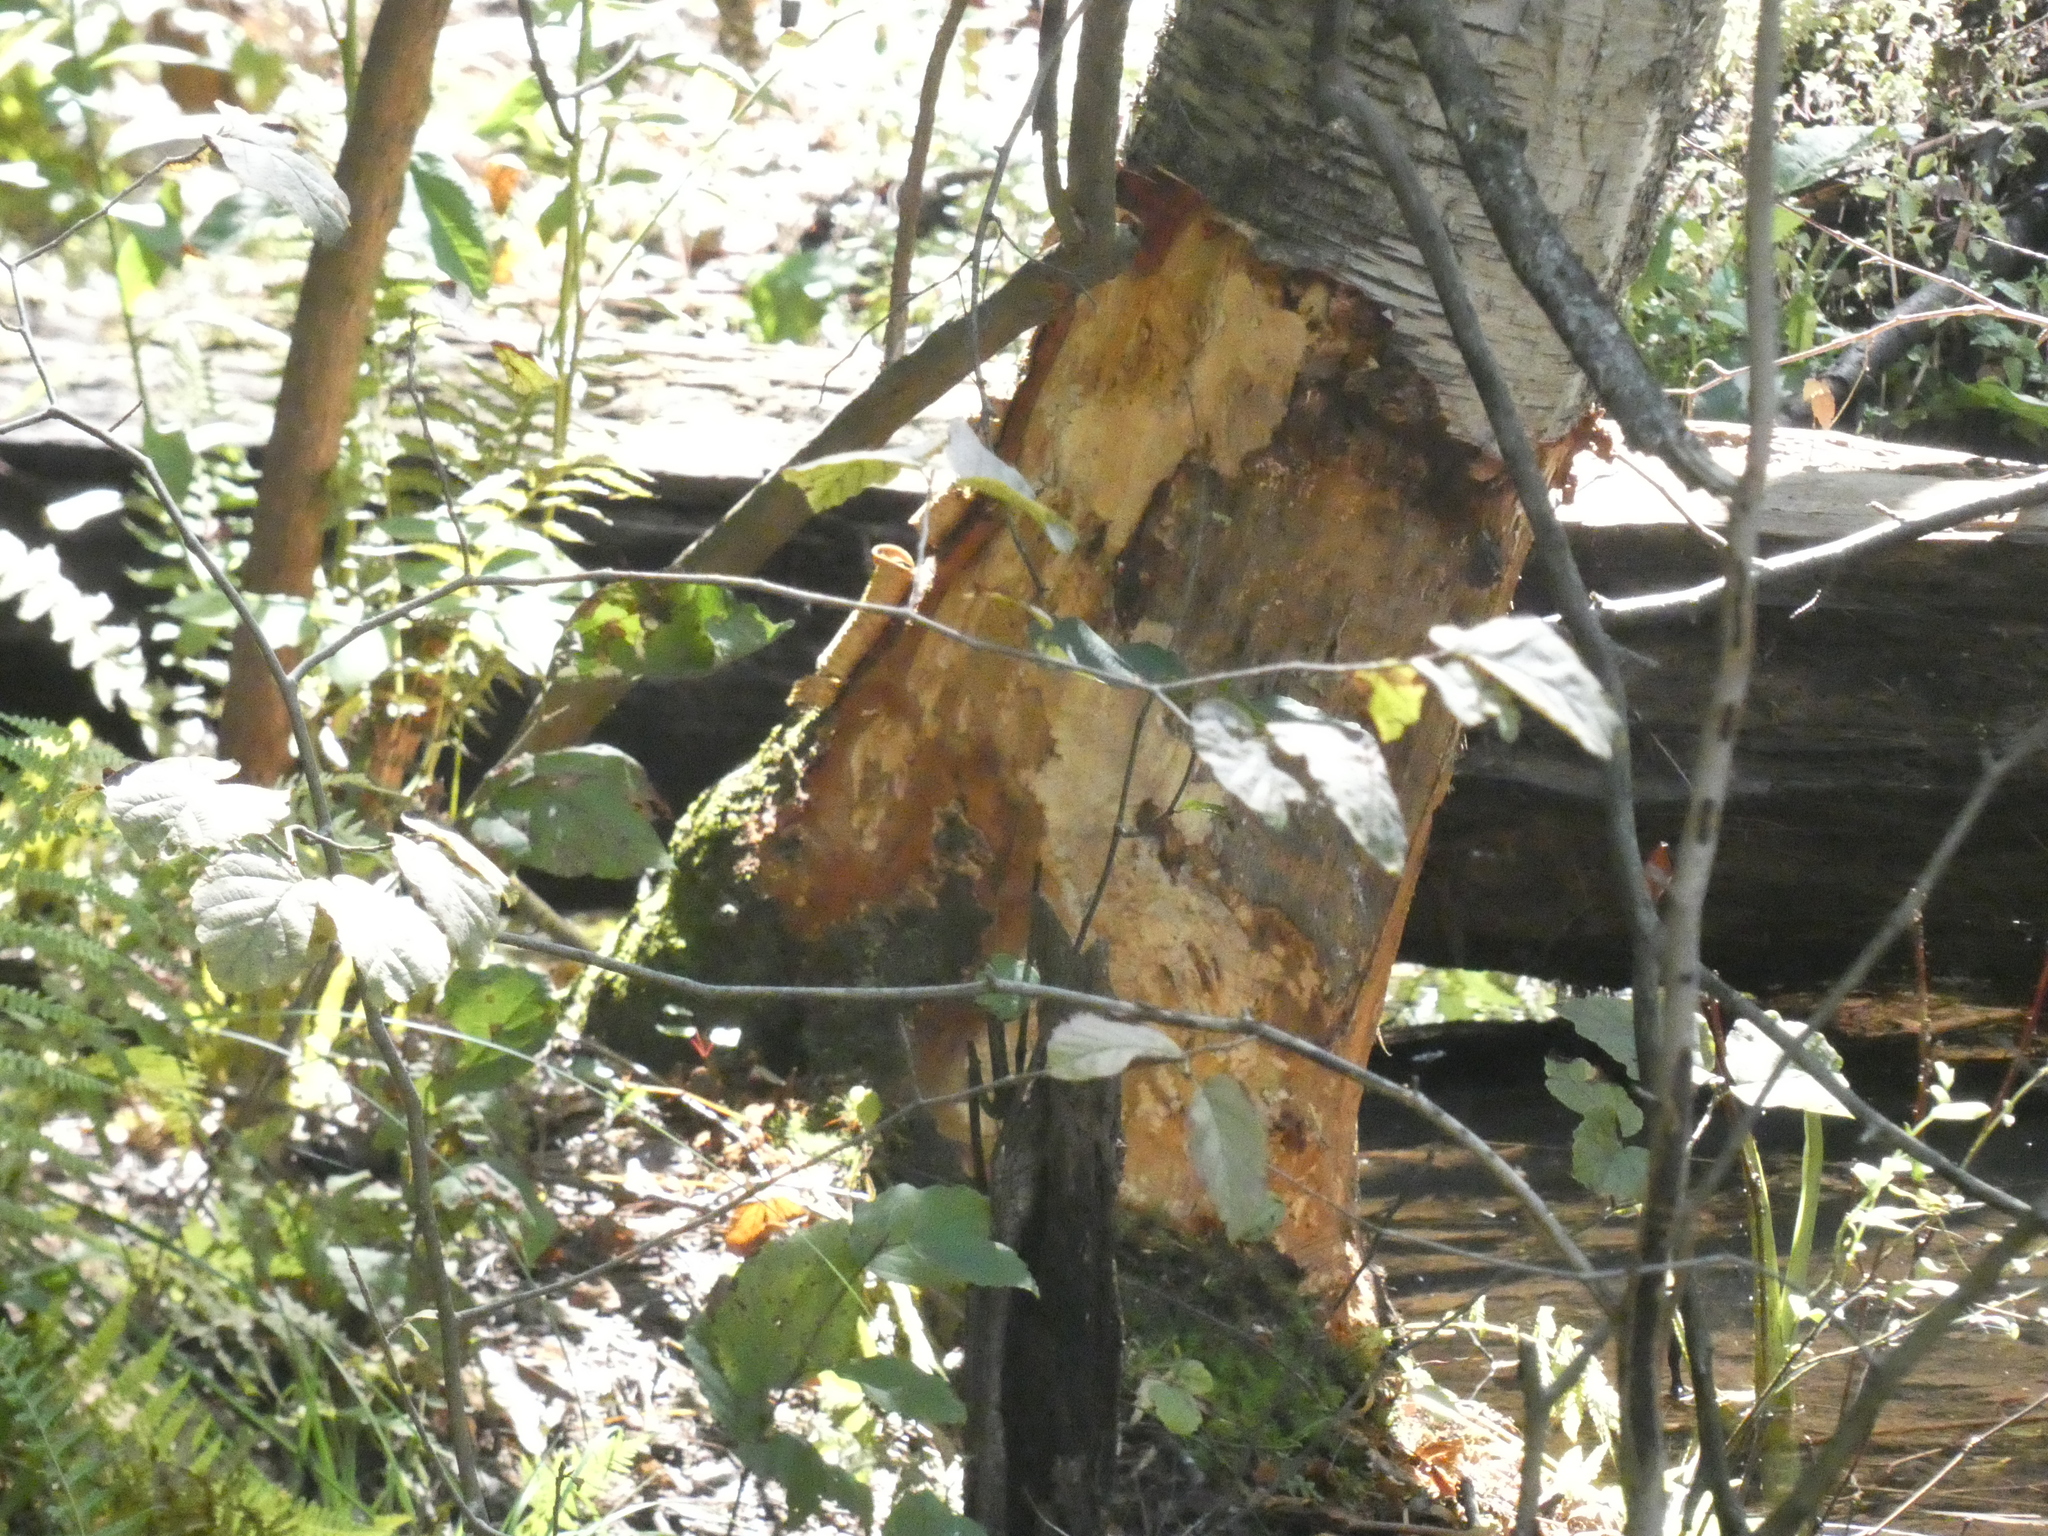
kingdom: Animalia
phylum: Chordata
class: Mammalia
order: Rodentia
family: Castoridae
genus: Castor
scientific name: Castor canadensis
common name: American beaver
